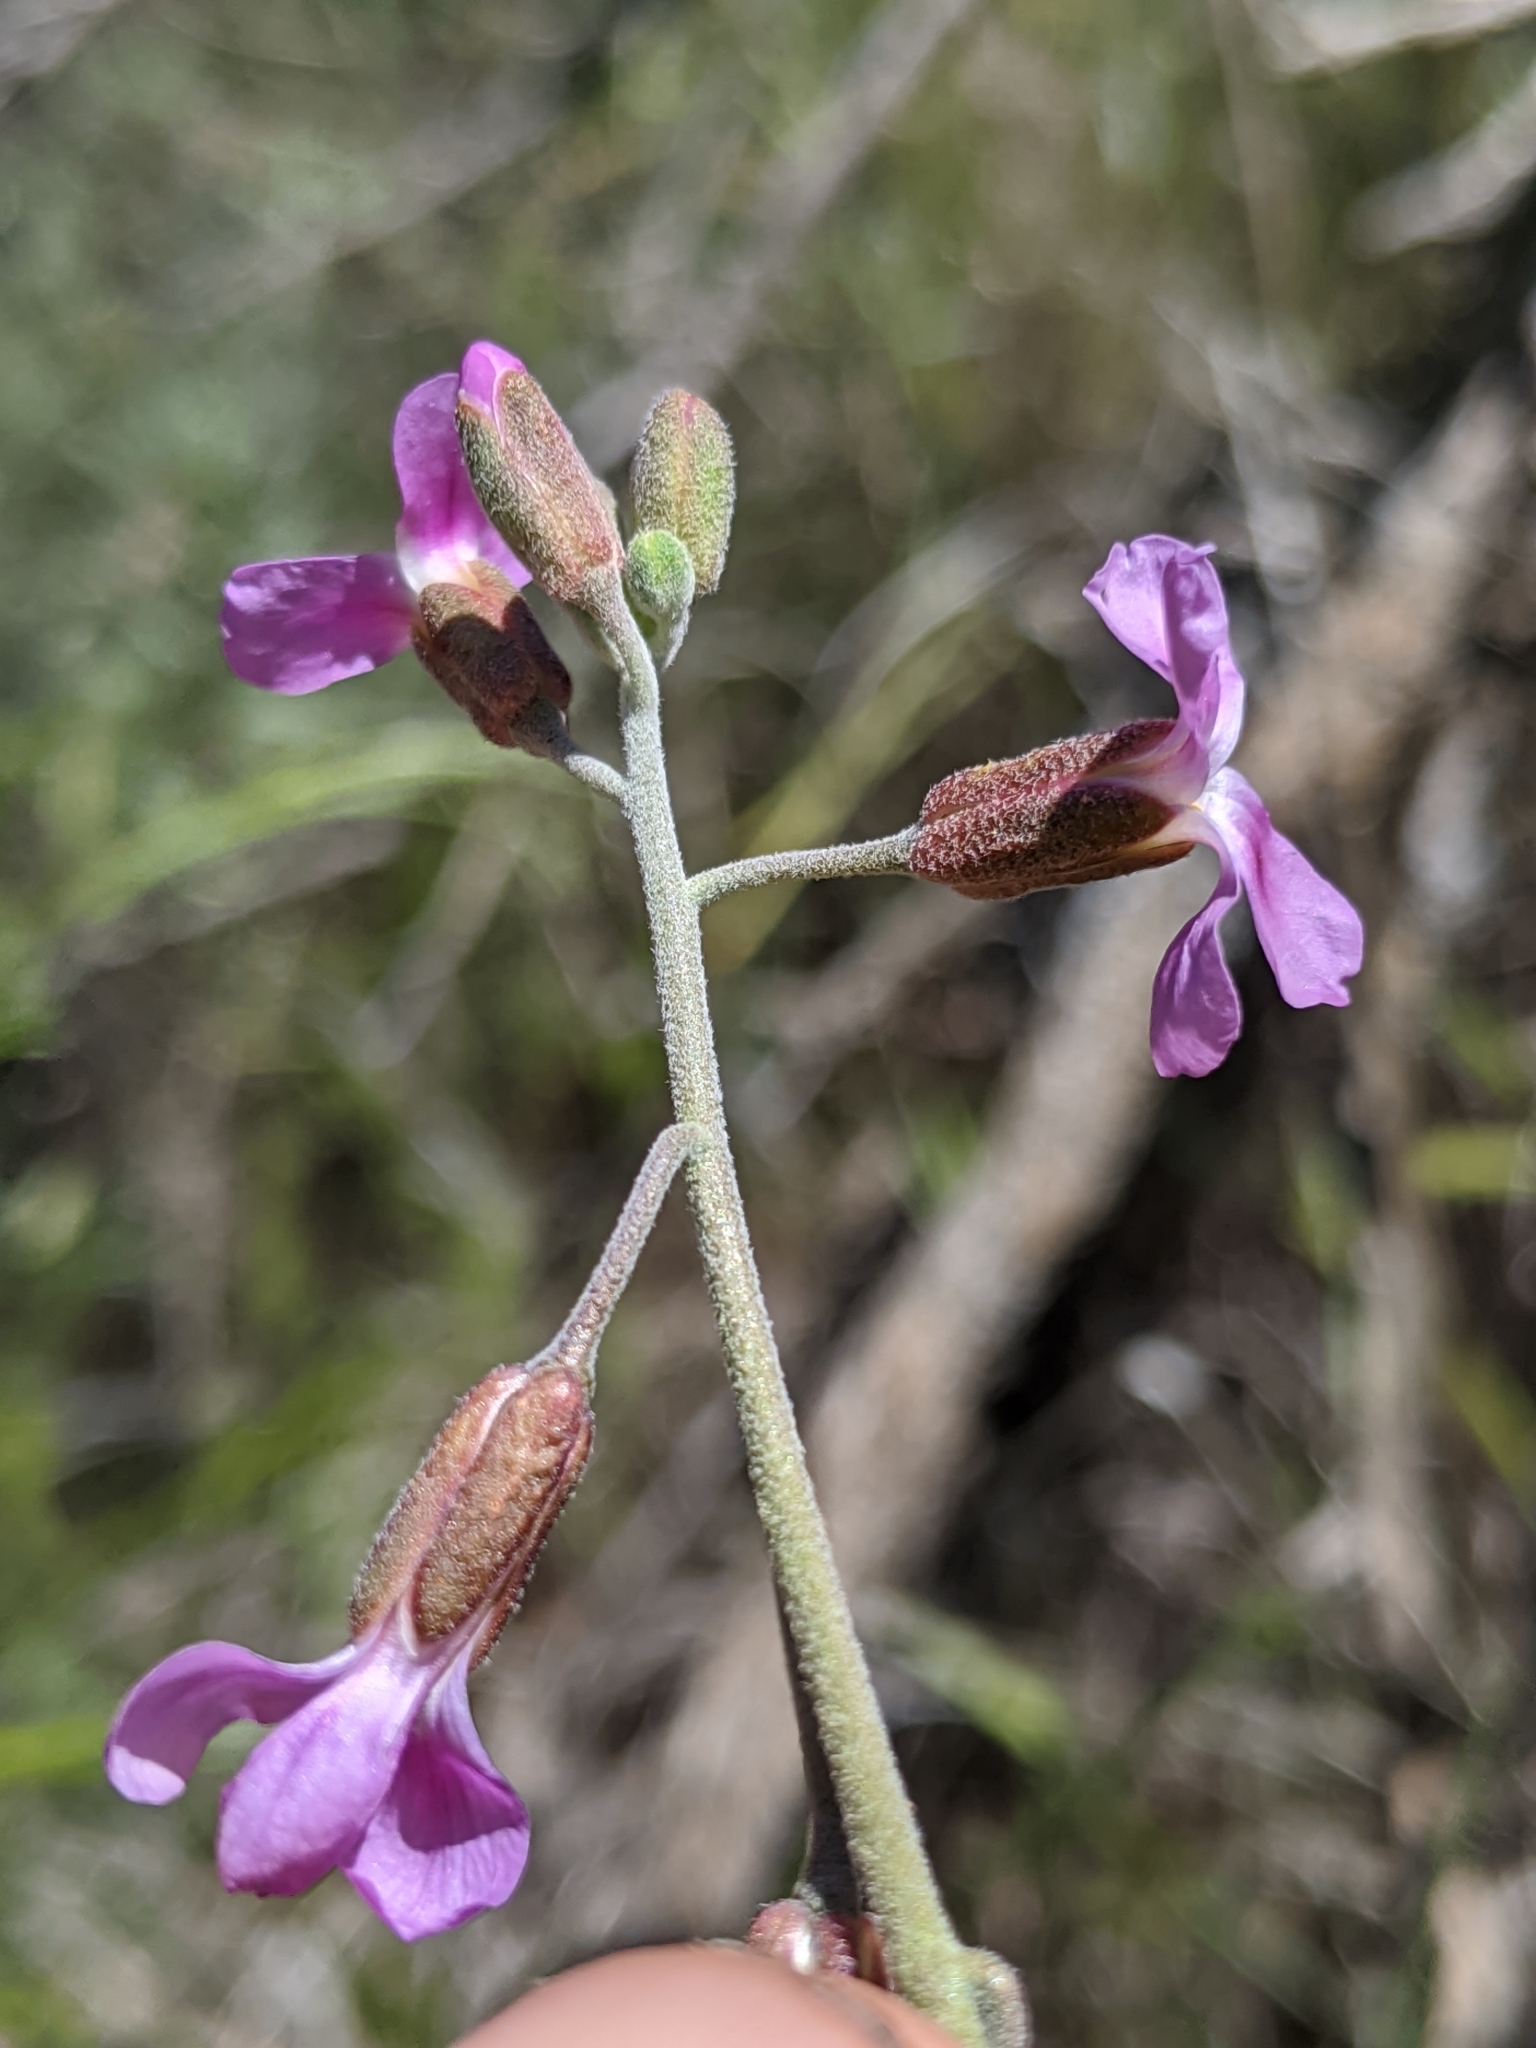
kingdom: Plantae
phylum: Tracheophyta
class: Magnoliopsida
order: Brassicales
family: Brassicaceae
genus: Boechera
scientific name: Boechera pulchra
